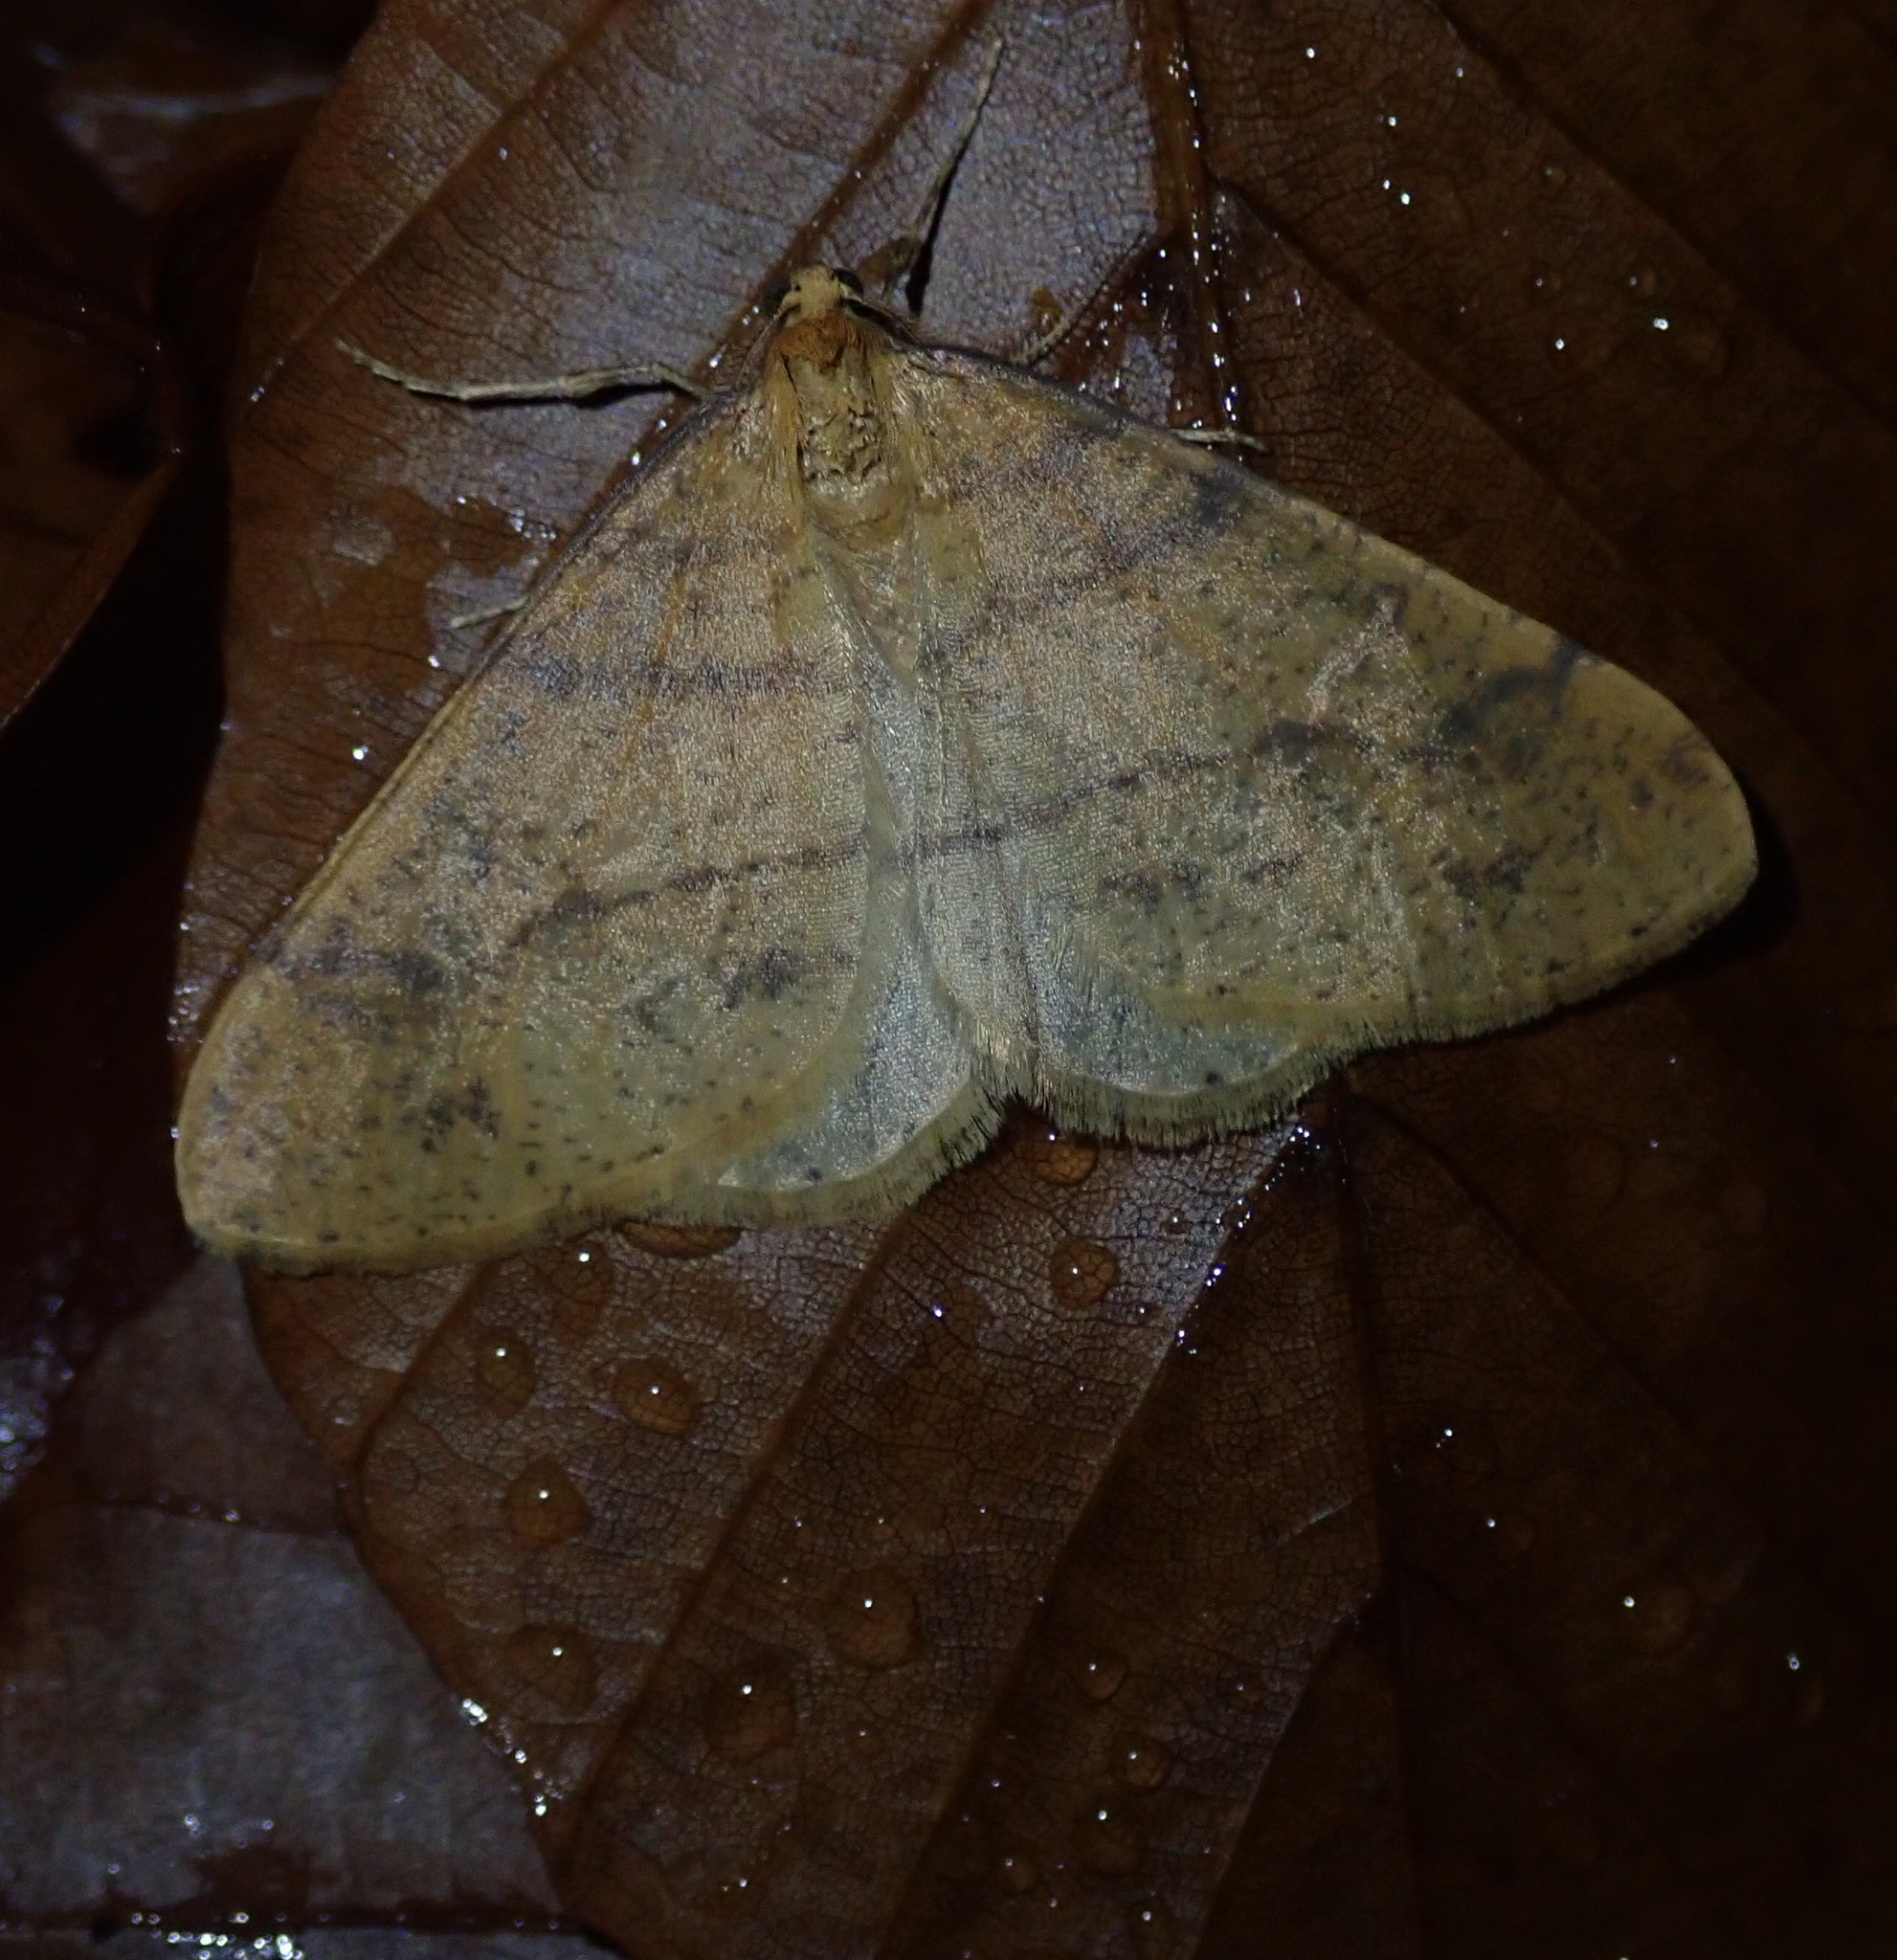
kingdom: Animalia
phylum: Arthropoda
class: Insecta
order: Lepidoptera
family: Geometridae
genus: Agriopis
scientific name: Agriopis aurantiaria
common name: Scarce umber
